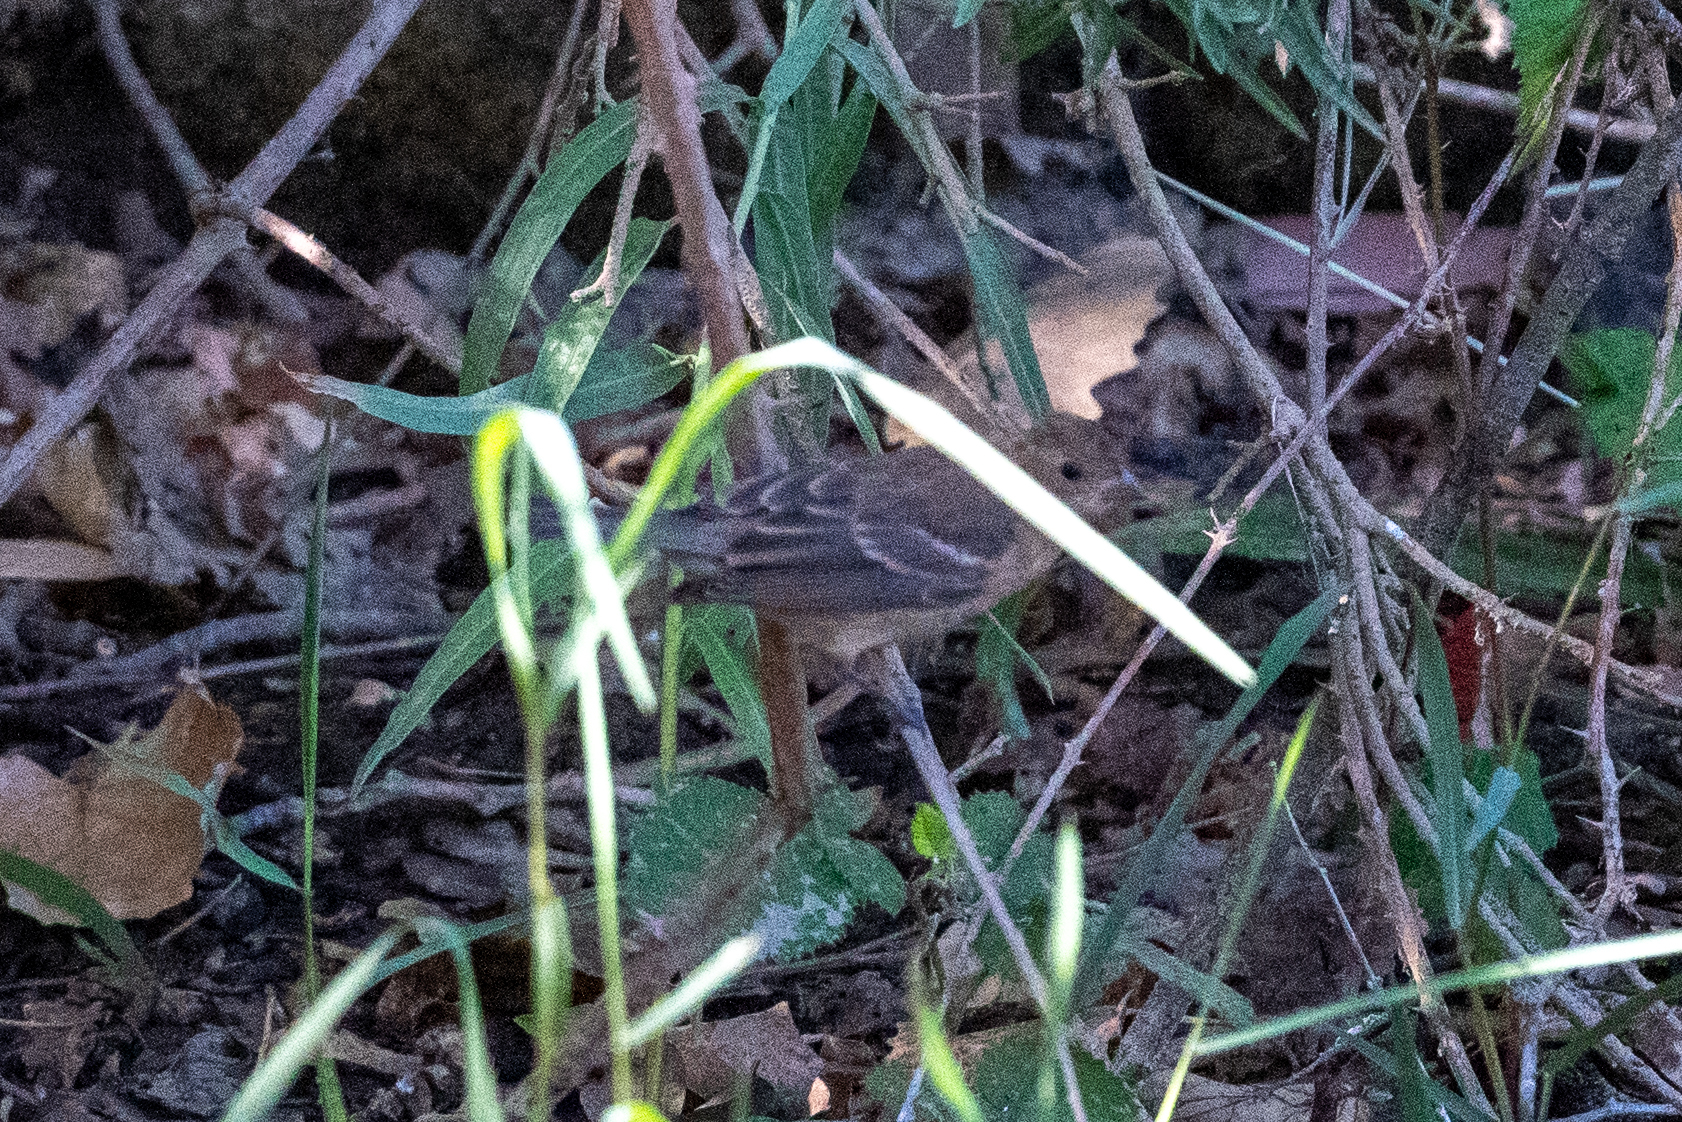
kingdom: Animalia
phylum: Chordata
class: Aves
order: Passeriformes
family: Cardinalidae
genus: Passerina
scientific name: Passerina amoena
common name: Lazuli bunting
